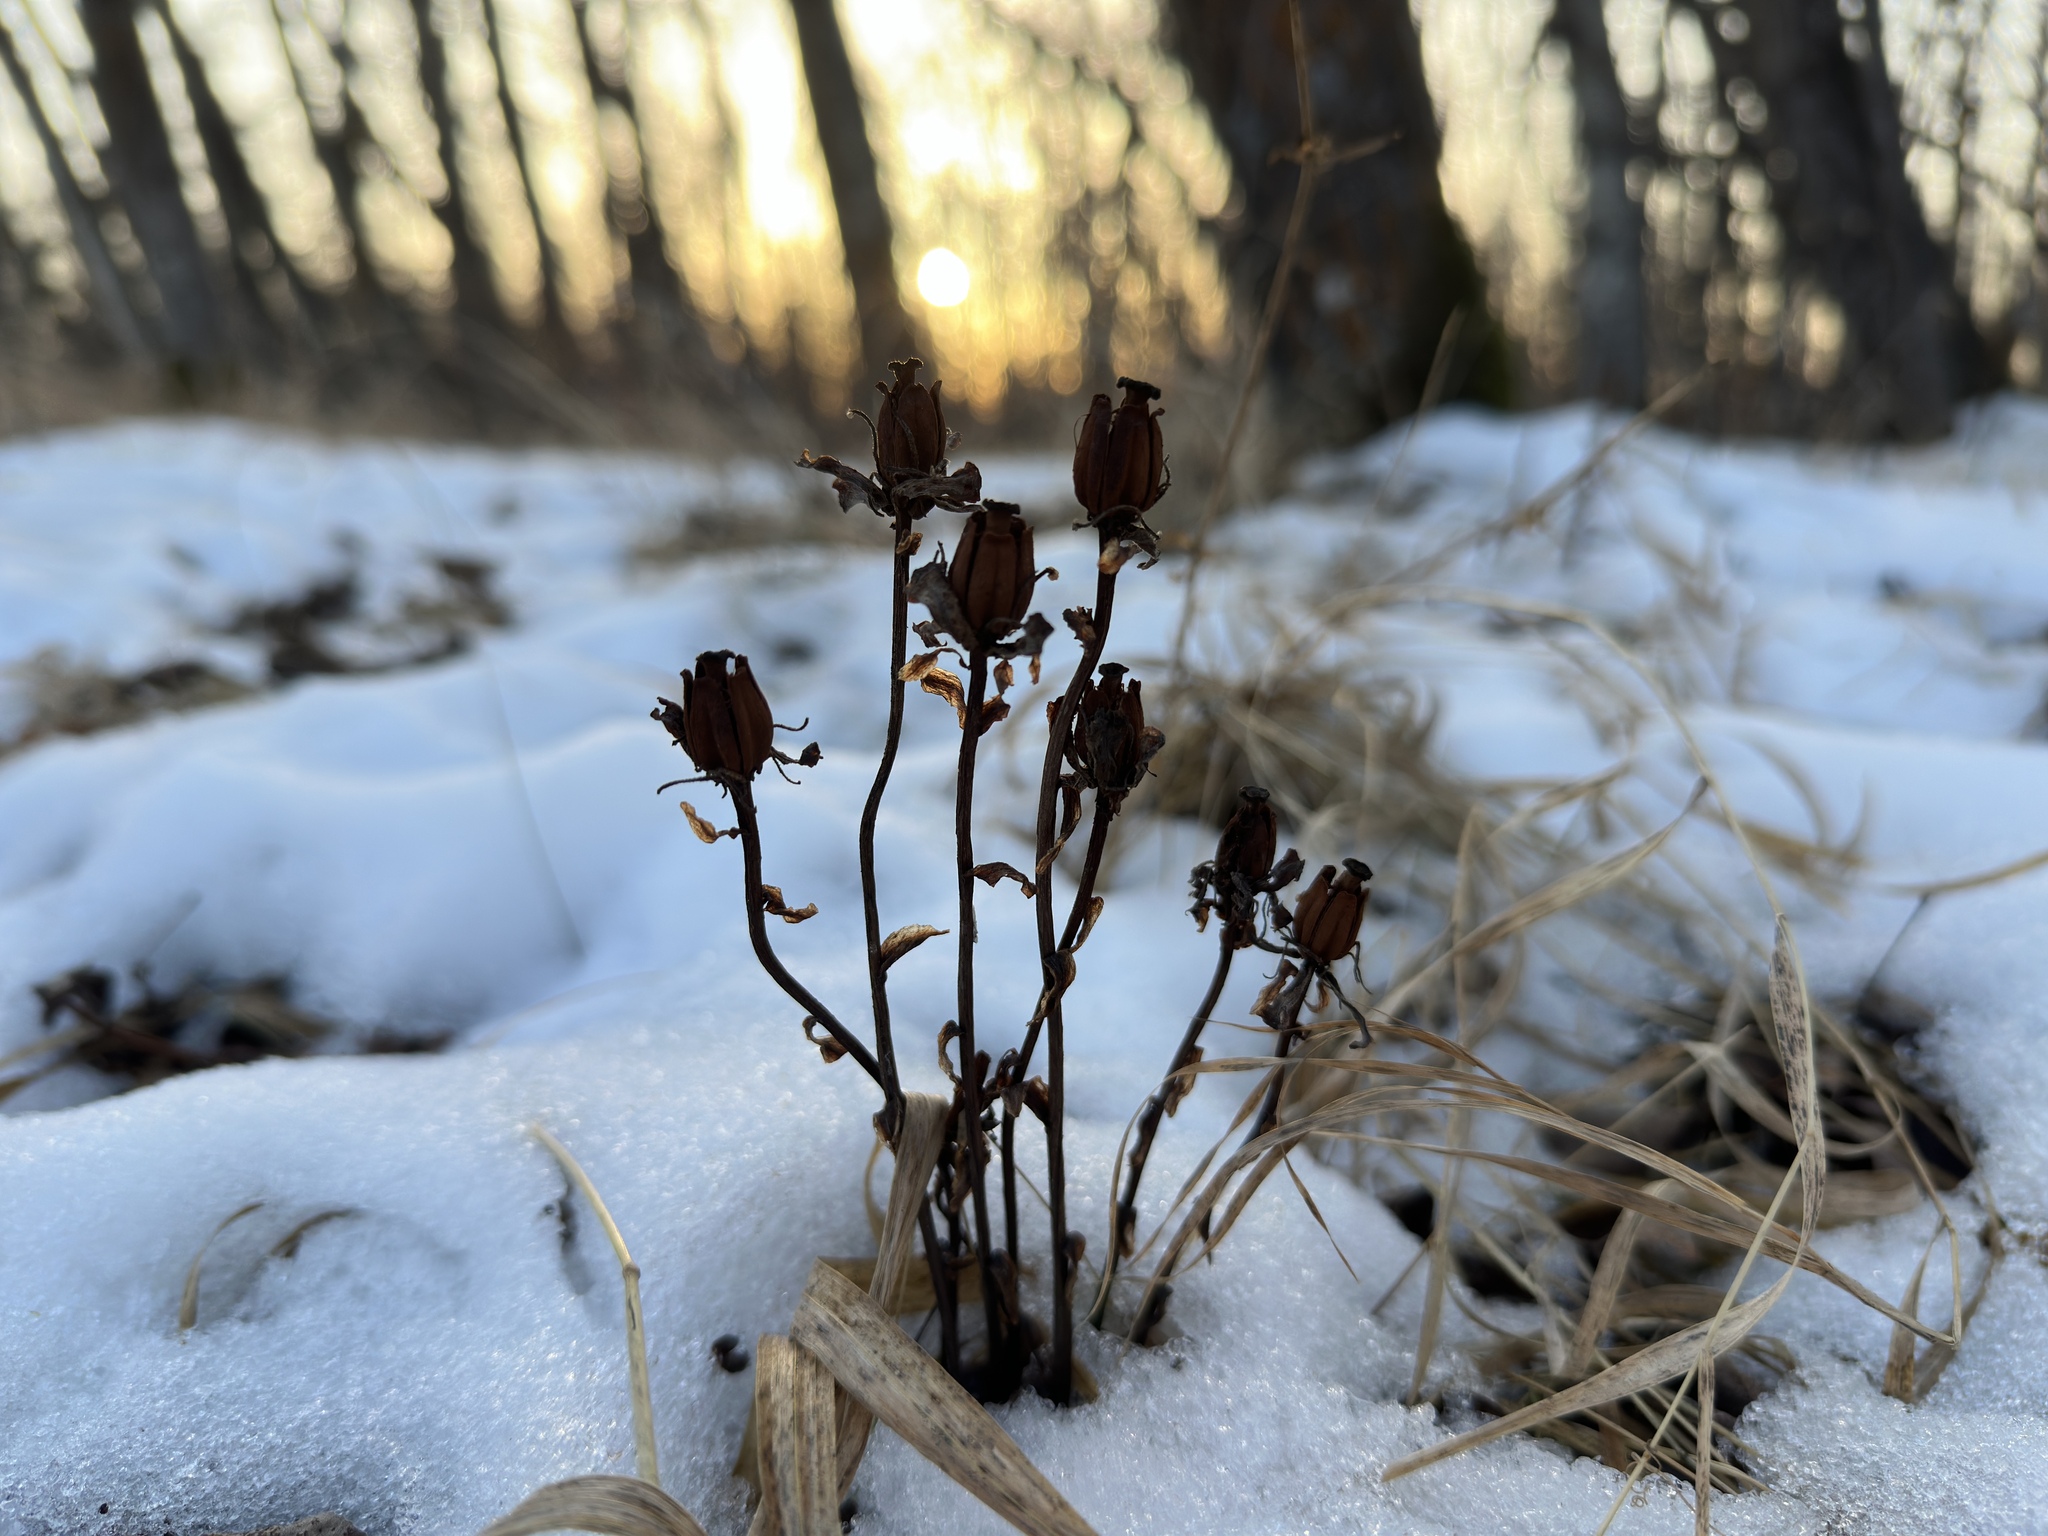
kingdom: Plantae
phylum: Tracheophyta
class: Magnoliopsida
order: Ericales
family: Ericaceae
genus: Monotropa
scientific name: Monotropa uniflora
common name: Convulsion root
